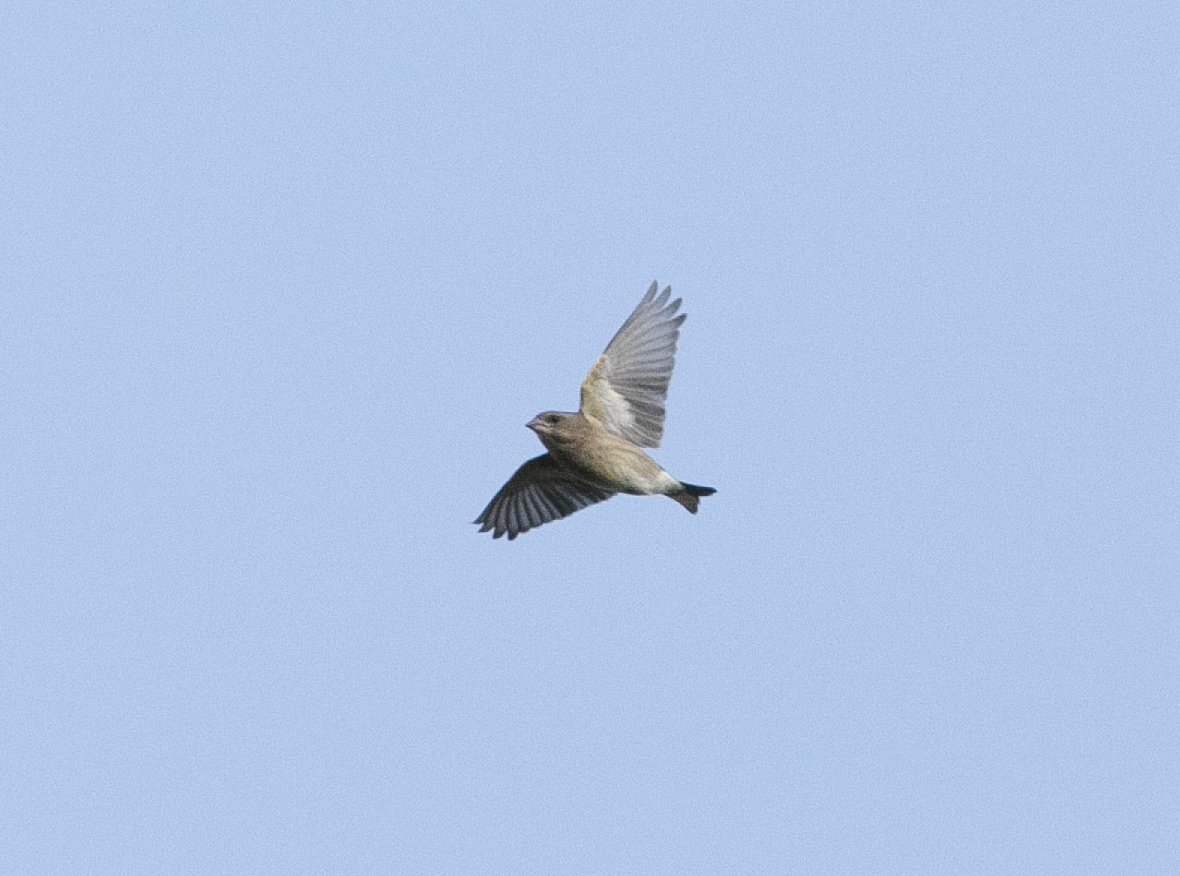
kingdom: Plantae
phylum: Tracheophyta
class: Liliopsida
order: Poales
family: Poaceae
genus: Chloris
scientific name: Chloris chloris
